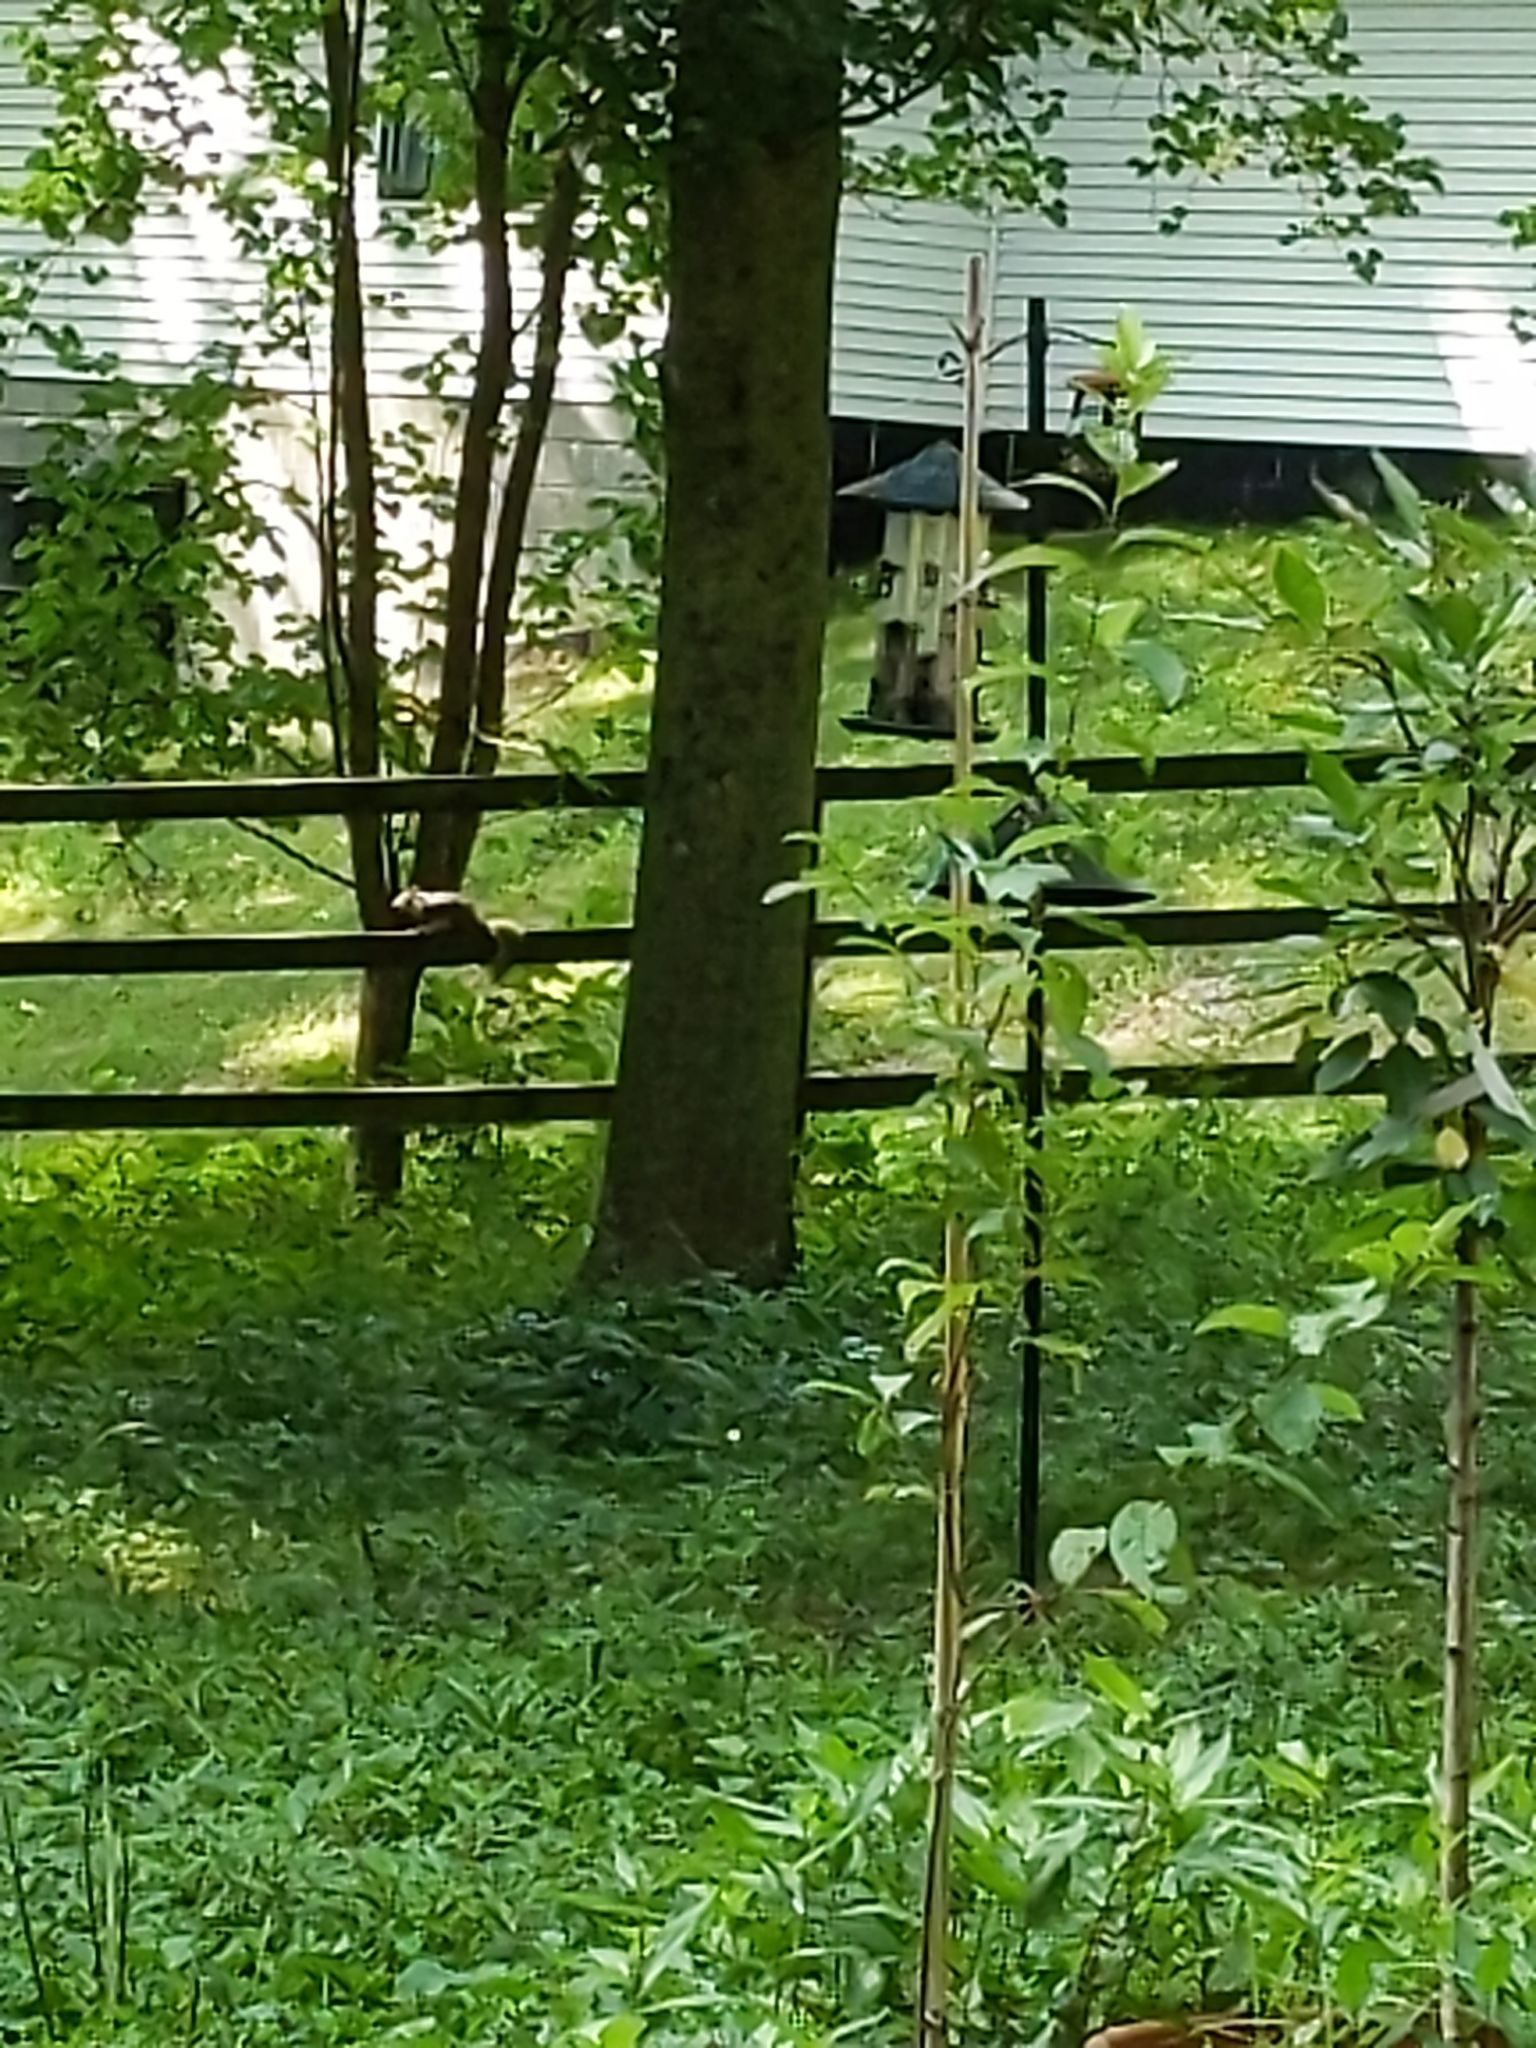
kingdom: Animalia
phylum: Chordata
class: Mammalia
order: Rodentia
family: Sciuridae
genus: Sciurus
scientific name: Sciurus carolinensis
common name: Eastern gray squirrel
